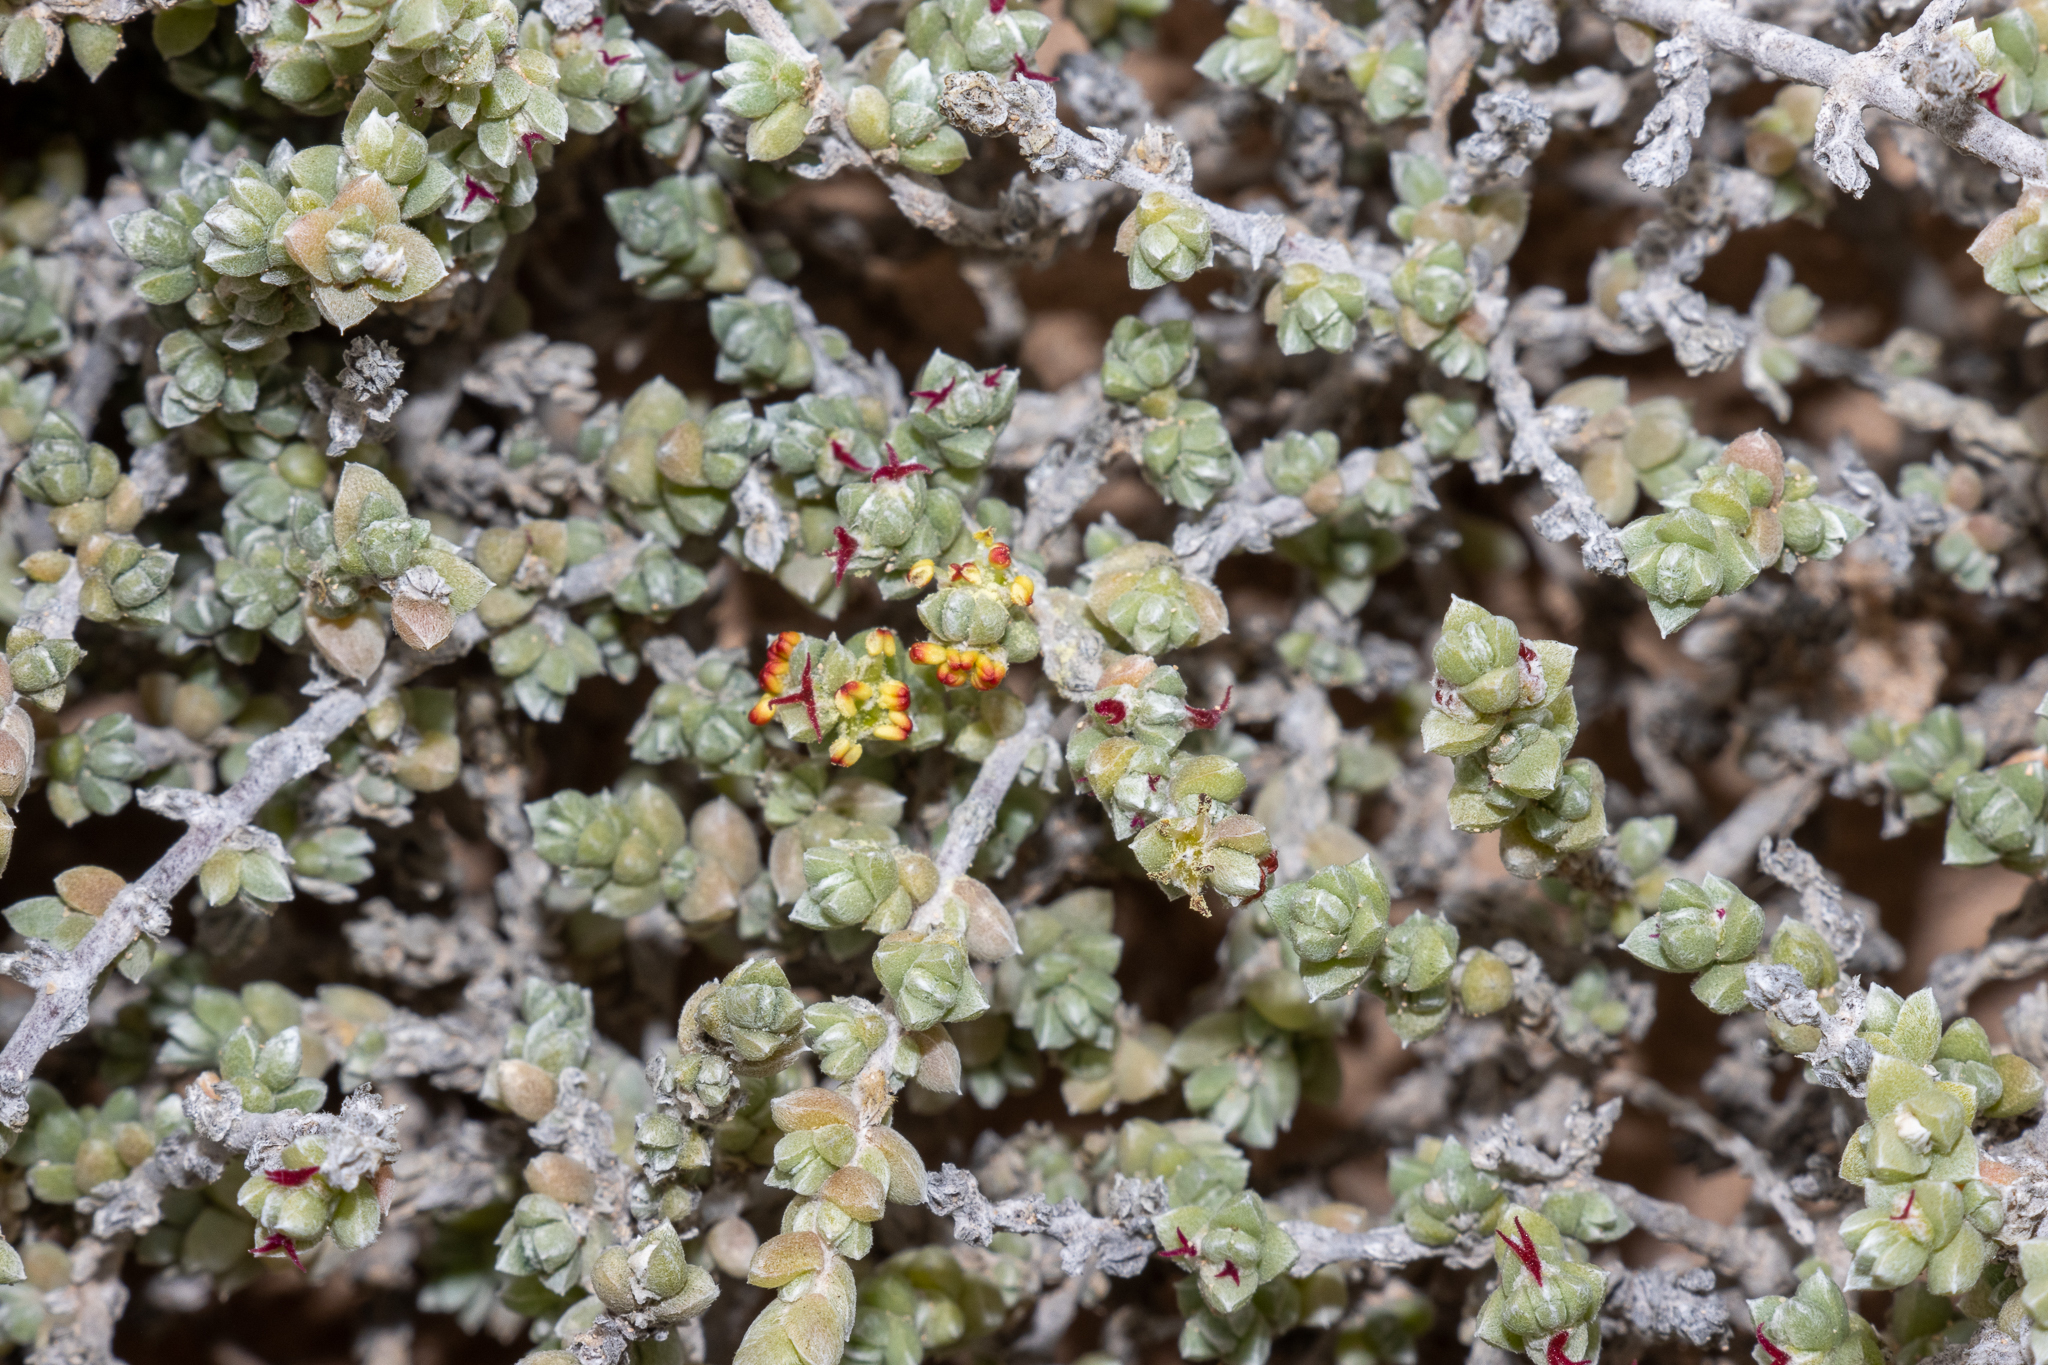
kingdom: Plantae
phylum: Tracheophyta
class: Magnoliopsida
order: Caryophyllales
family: Amaranthaceae
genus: Maireana
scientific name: Maireana oppositifolia
